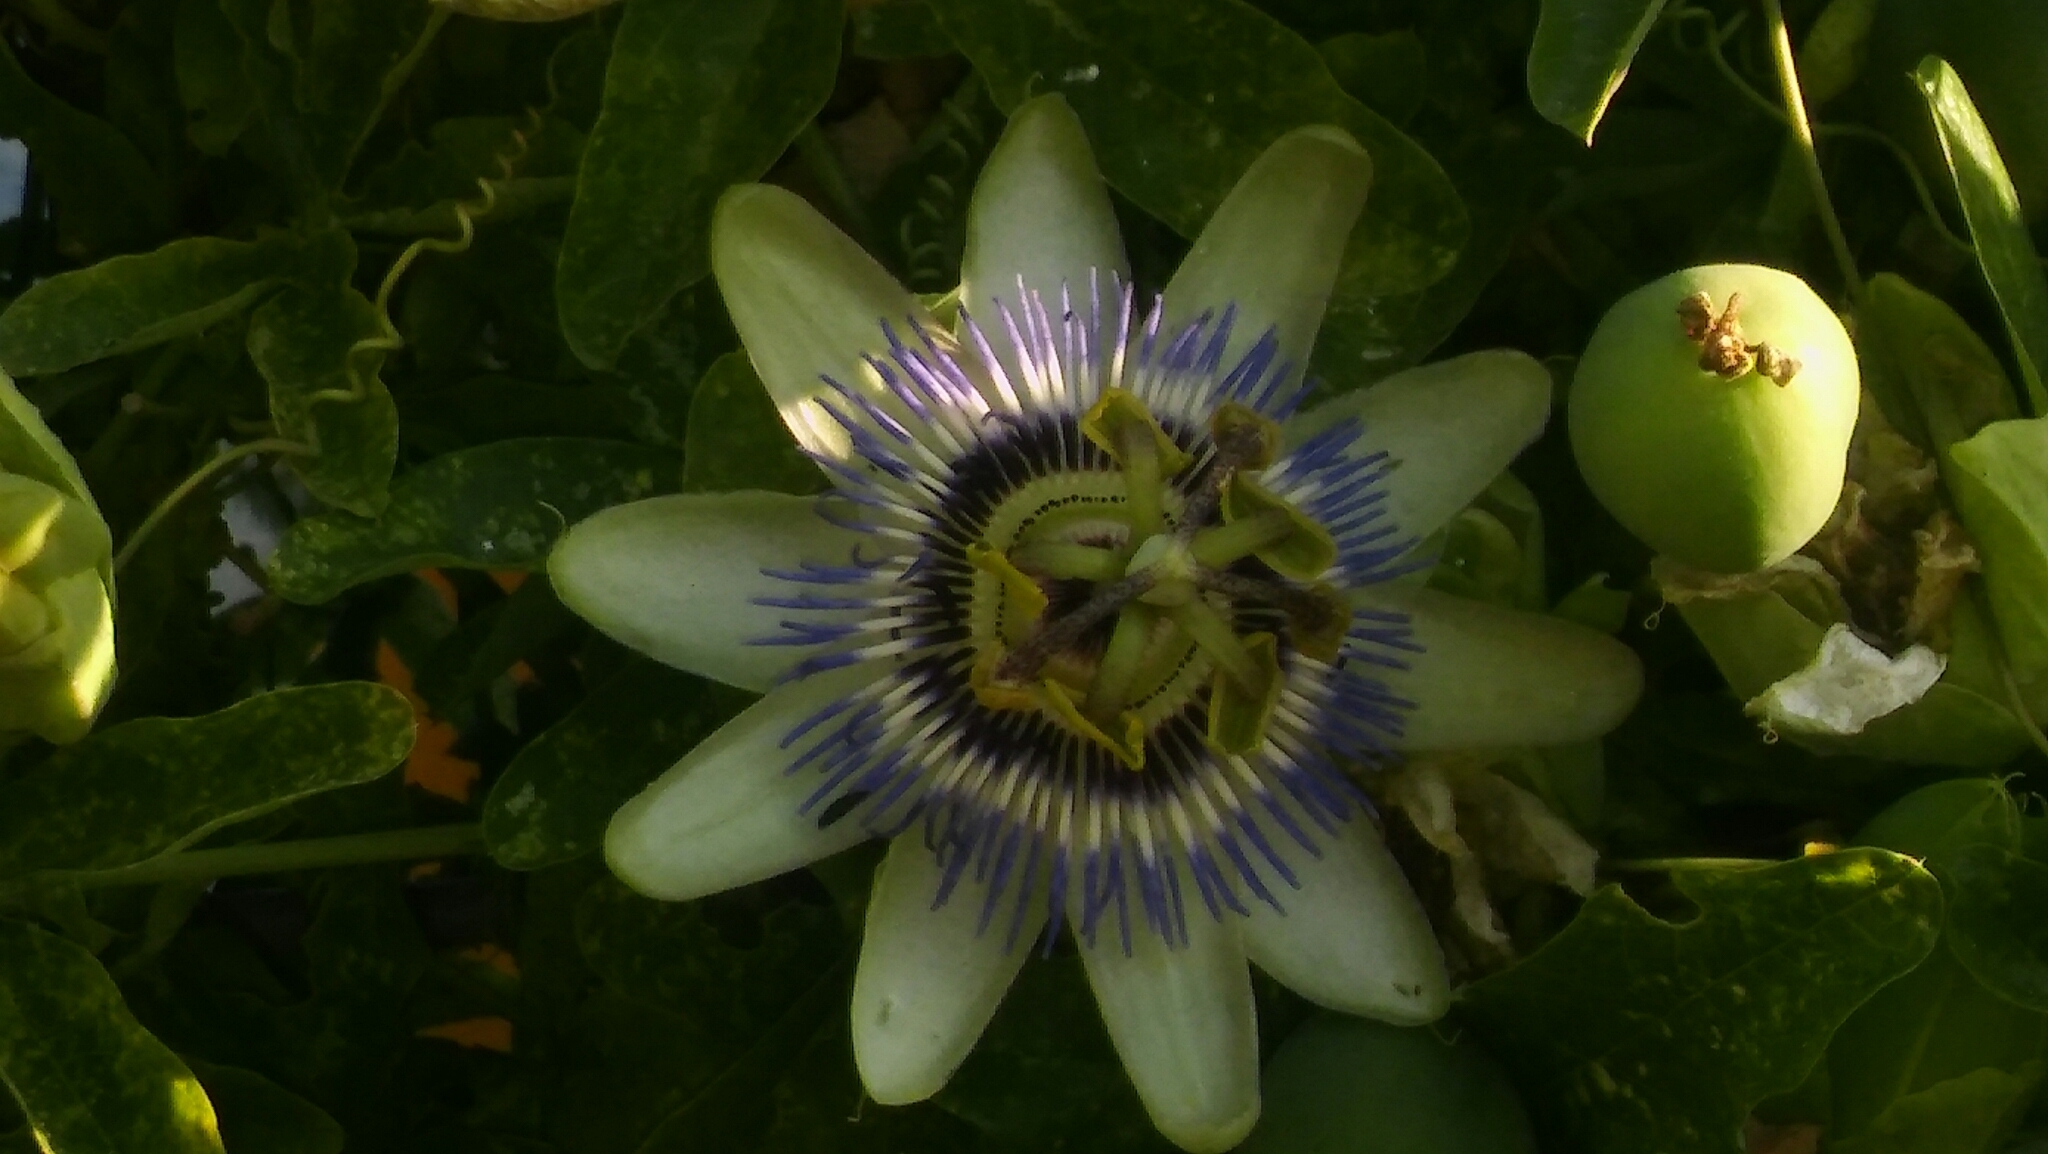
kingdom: Plantae
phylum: Tracheophyta
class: Magnoliopsida
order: Malpighiales
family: Passifloraceae
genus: Passiflora
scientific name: Passiflora caerulea
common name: Blue passionflower
